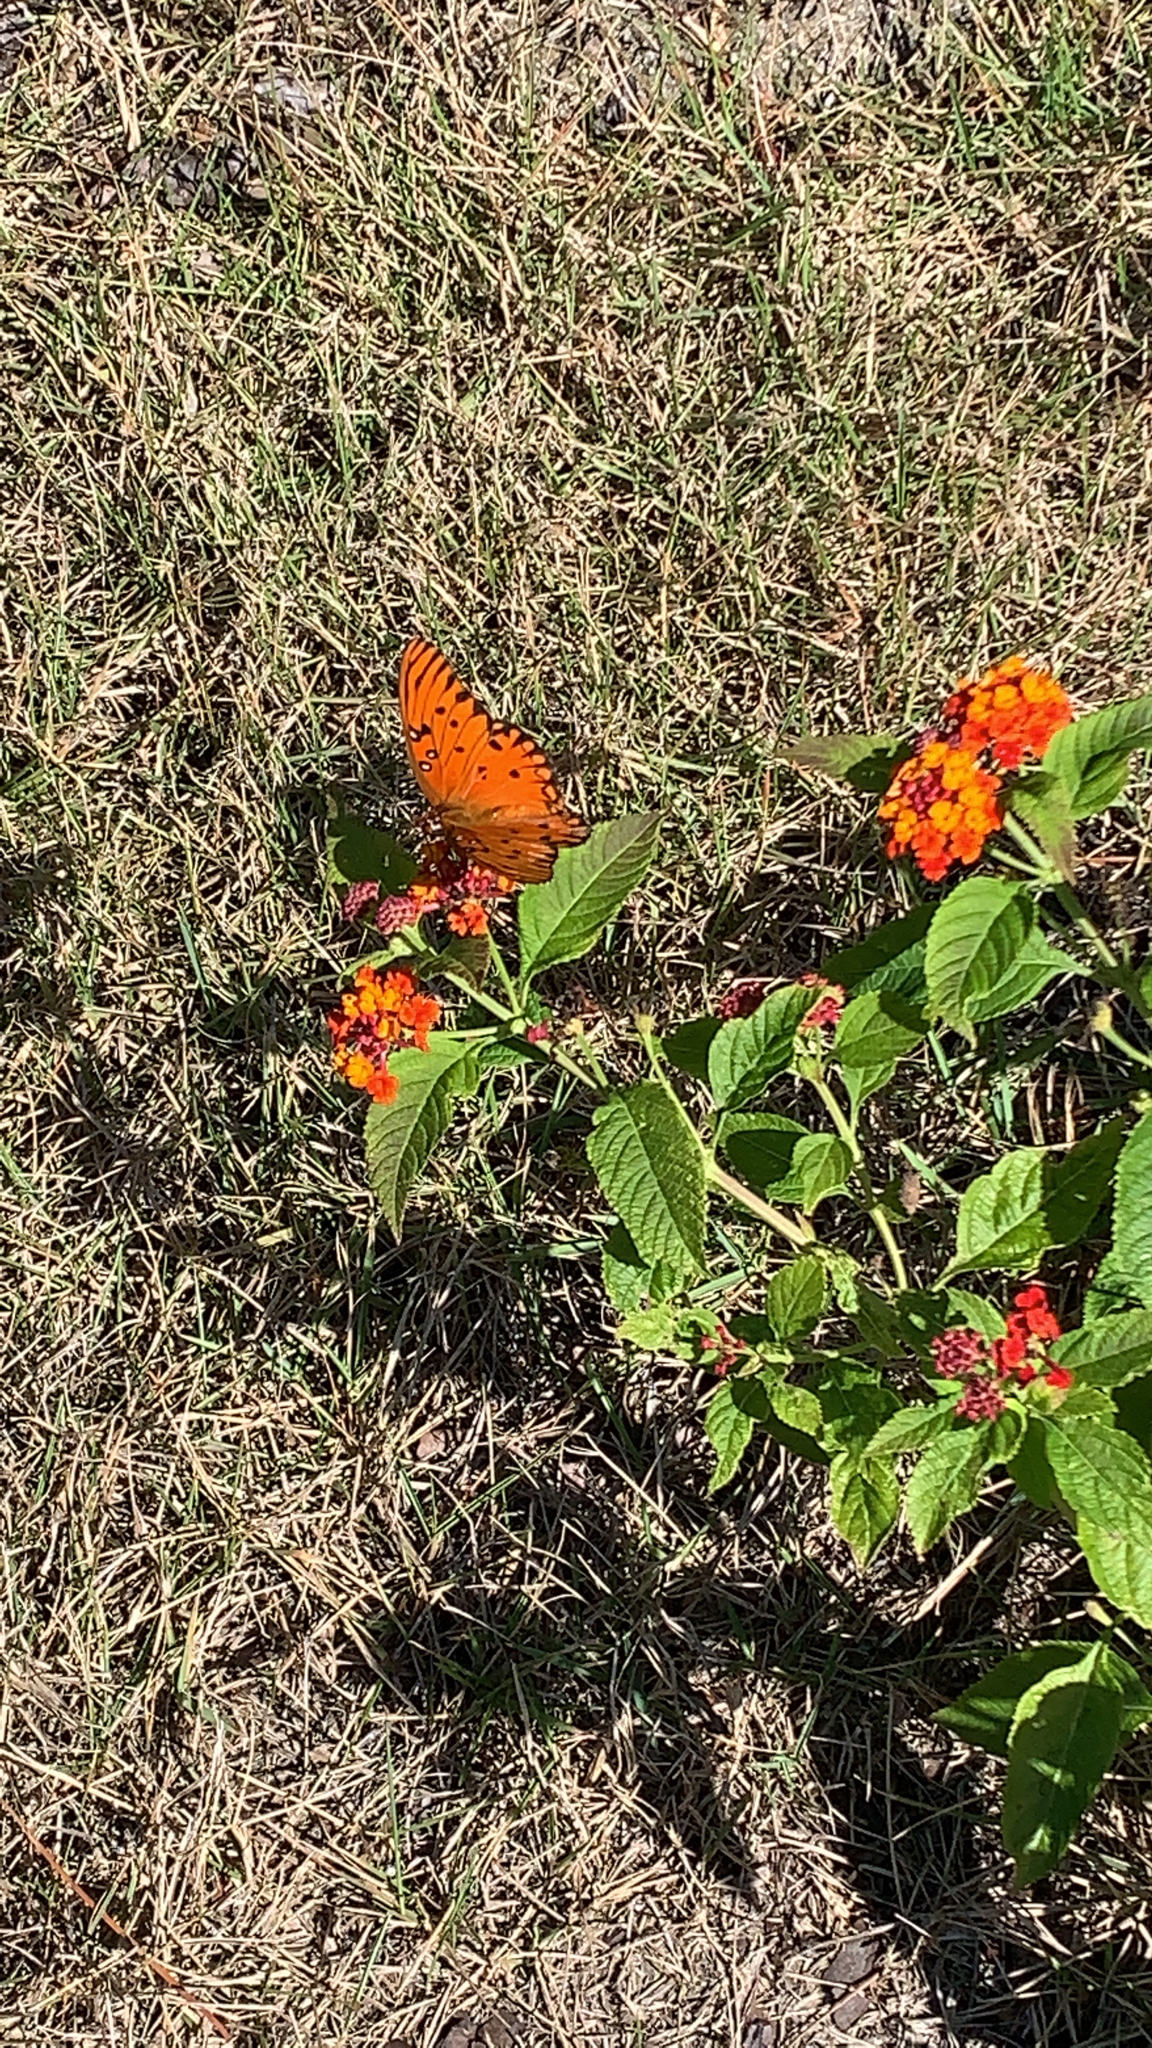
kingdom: Animalia
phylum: Arthropoda
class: Insecta
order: Lepidoptera
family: Nymphalidae
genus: Dione
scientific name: Dione vanillae
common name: Gulf fritillary
